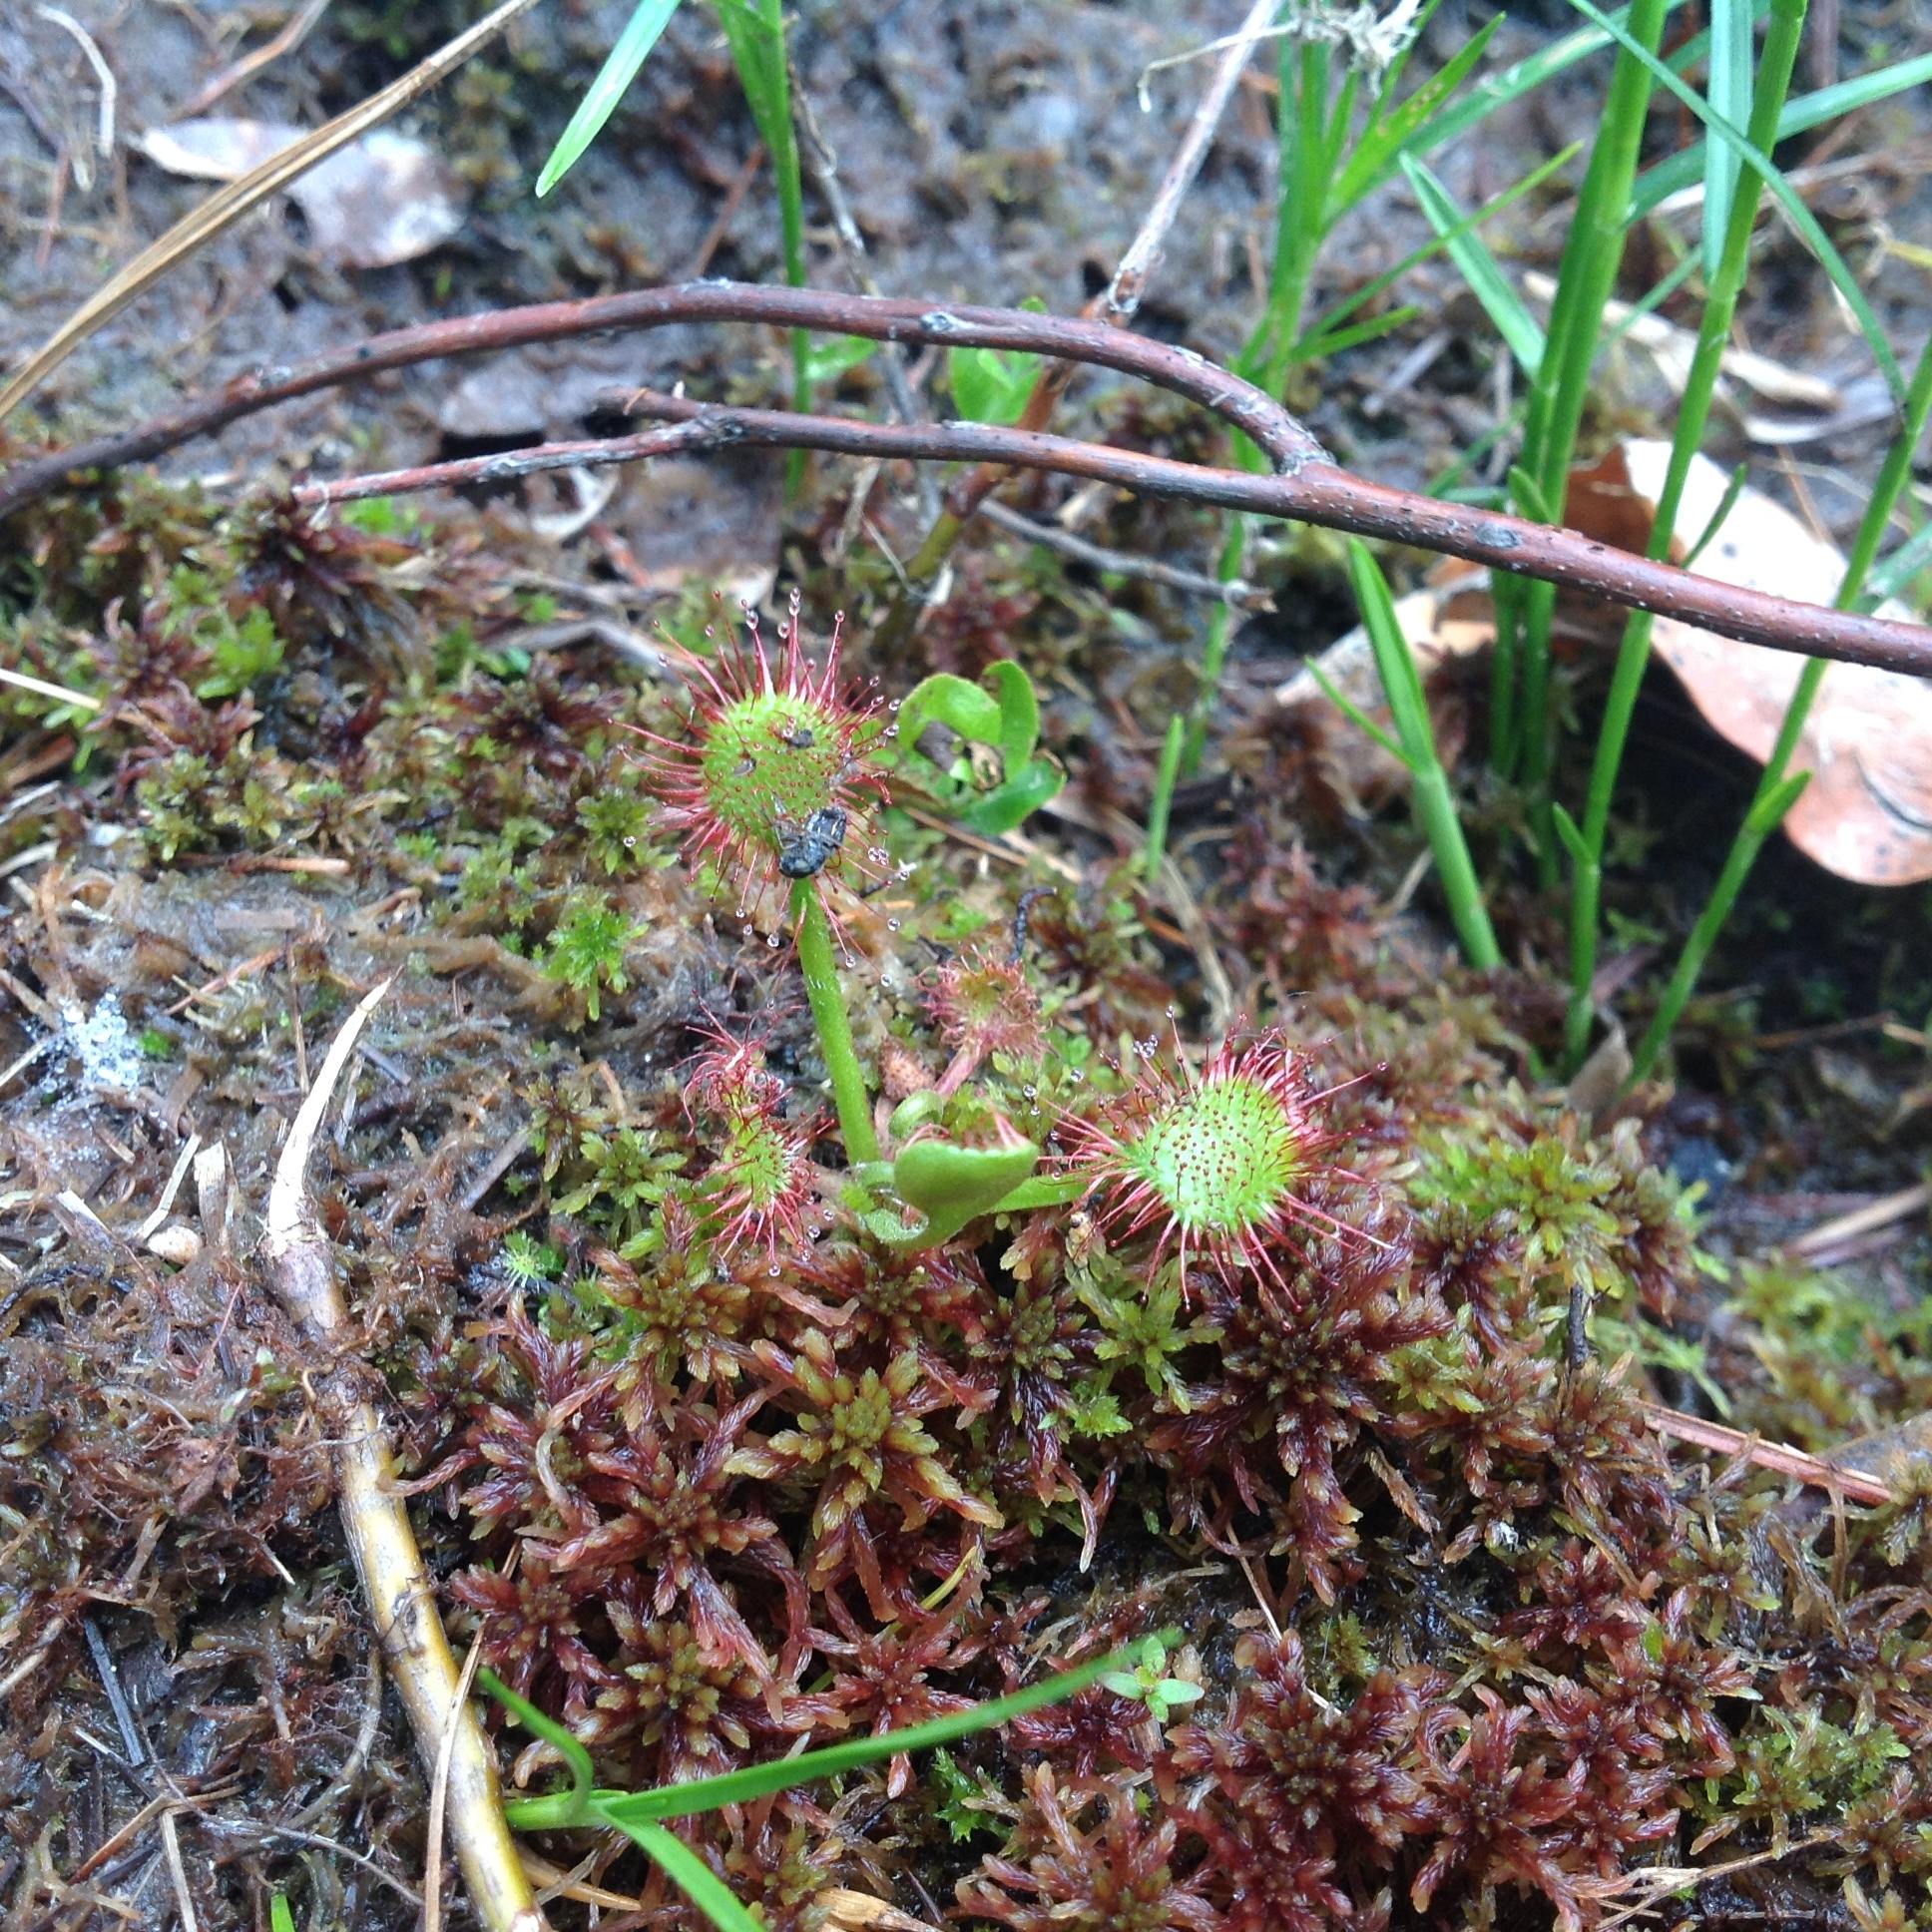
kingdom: Plantae
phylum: Tracheophyta
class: Magnoliopsida
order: Caryophyllales
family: Droseraceae
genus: Drosera
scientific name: Drosera rotundifolia
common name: Round-leaved sundew
